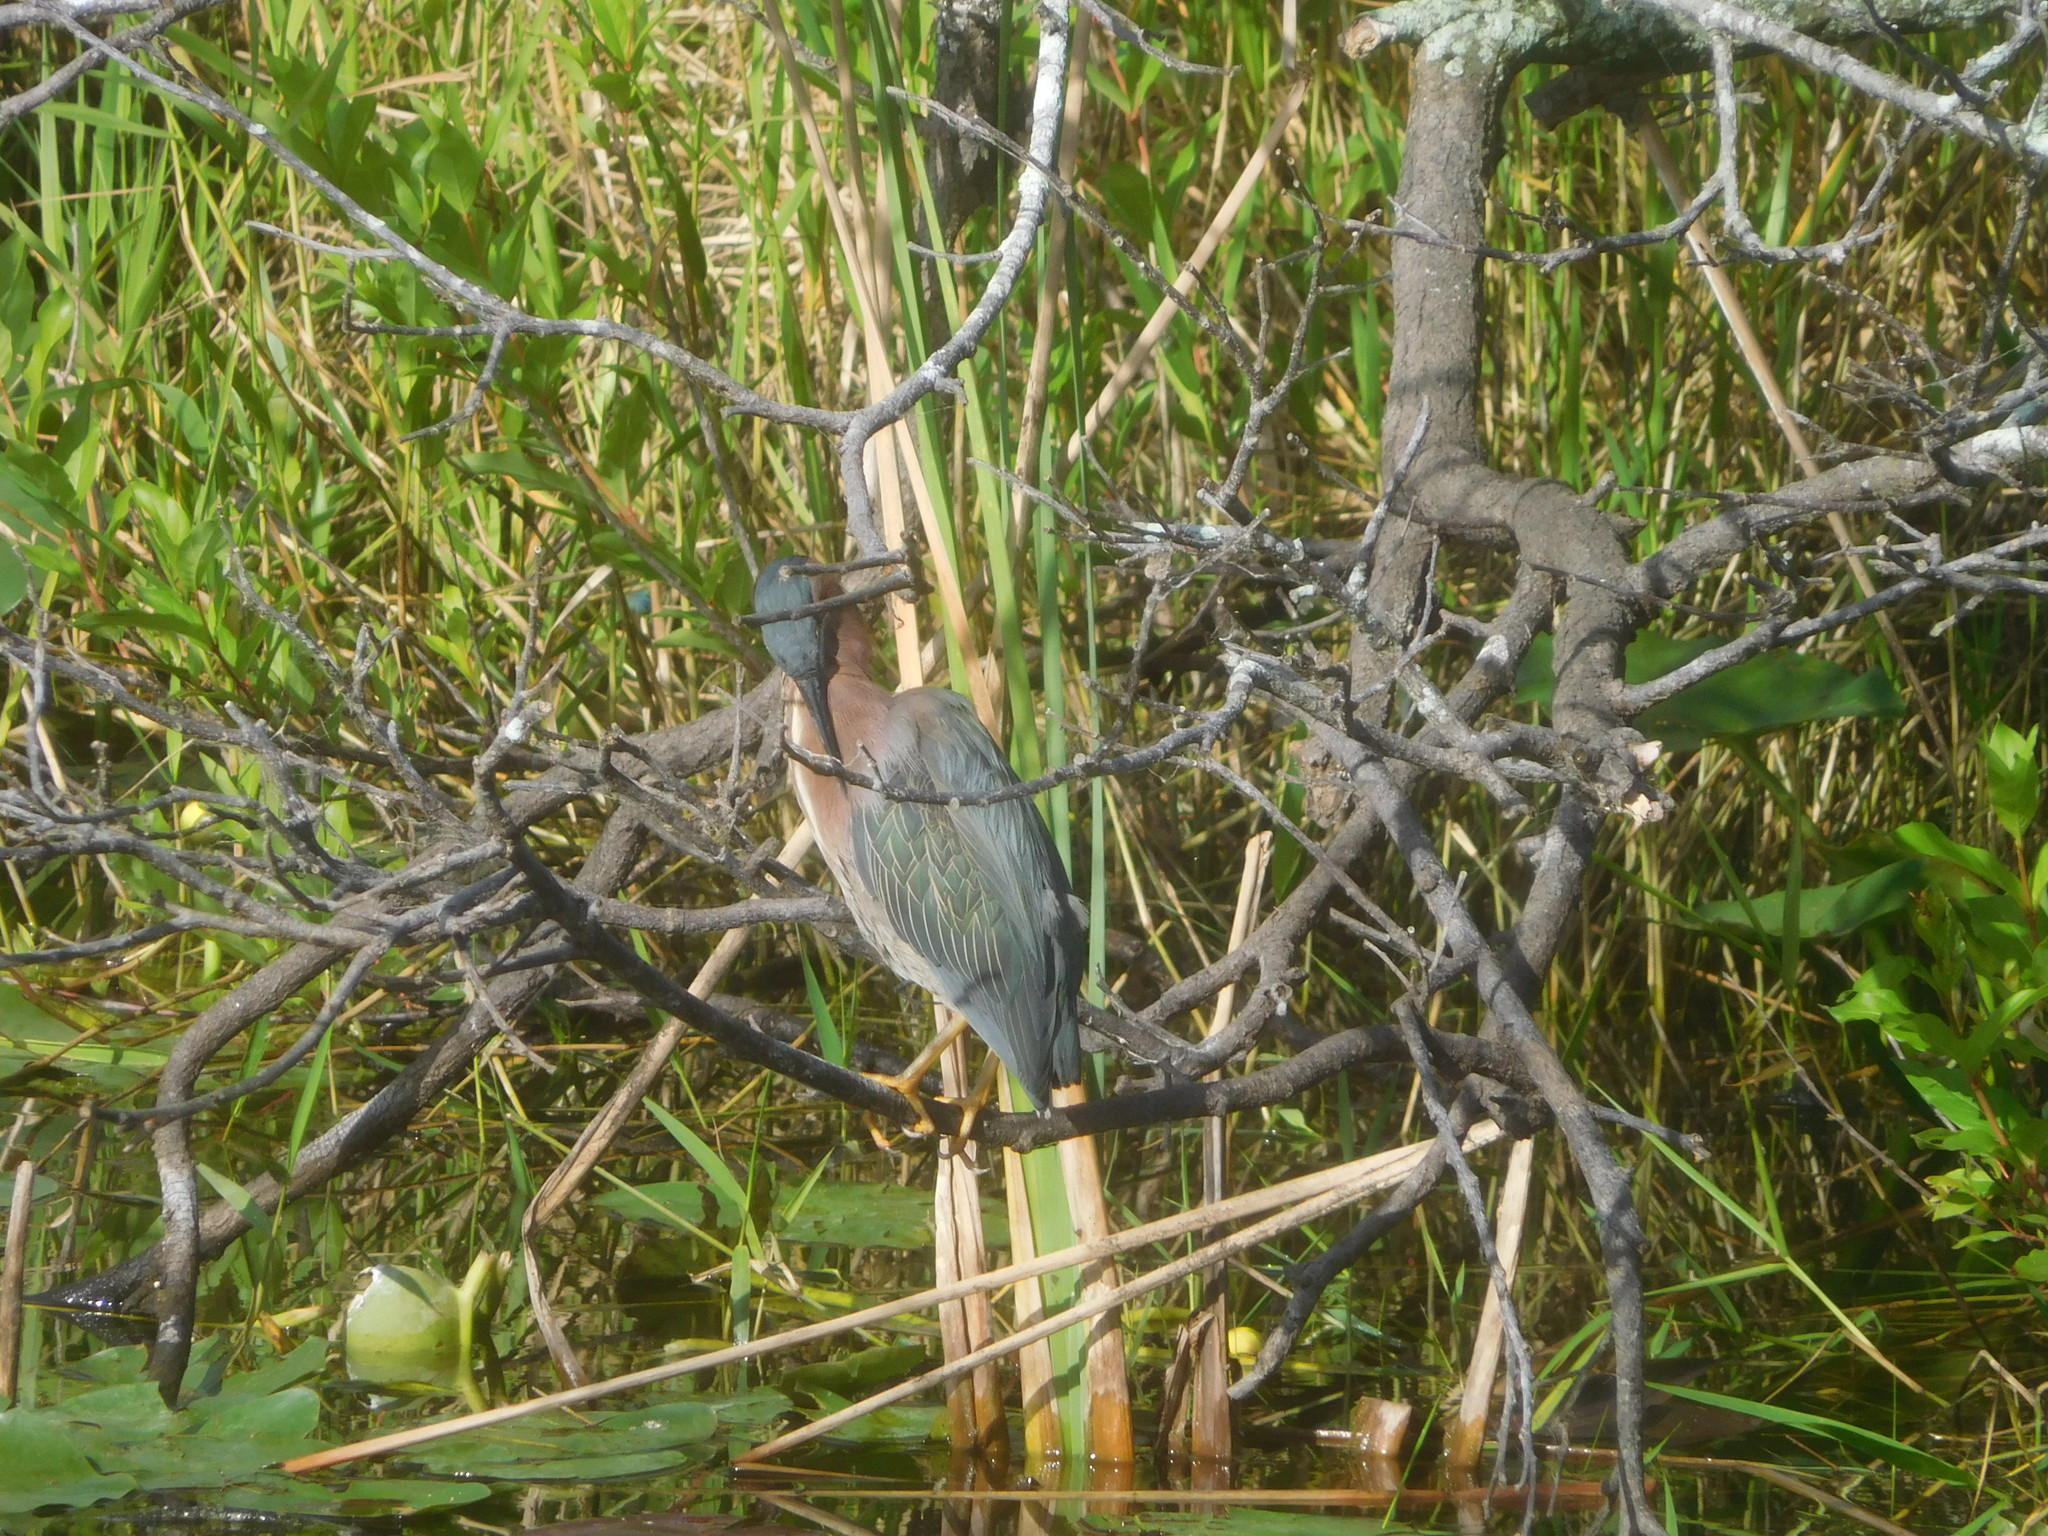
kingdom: Animalia
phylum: Chordata
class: Aves
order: Pelecaniformes
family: Ardeidae
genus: Butorides
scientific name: Butorides virescens
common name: Green heron
